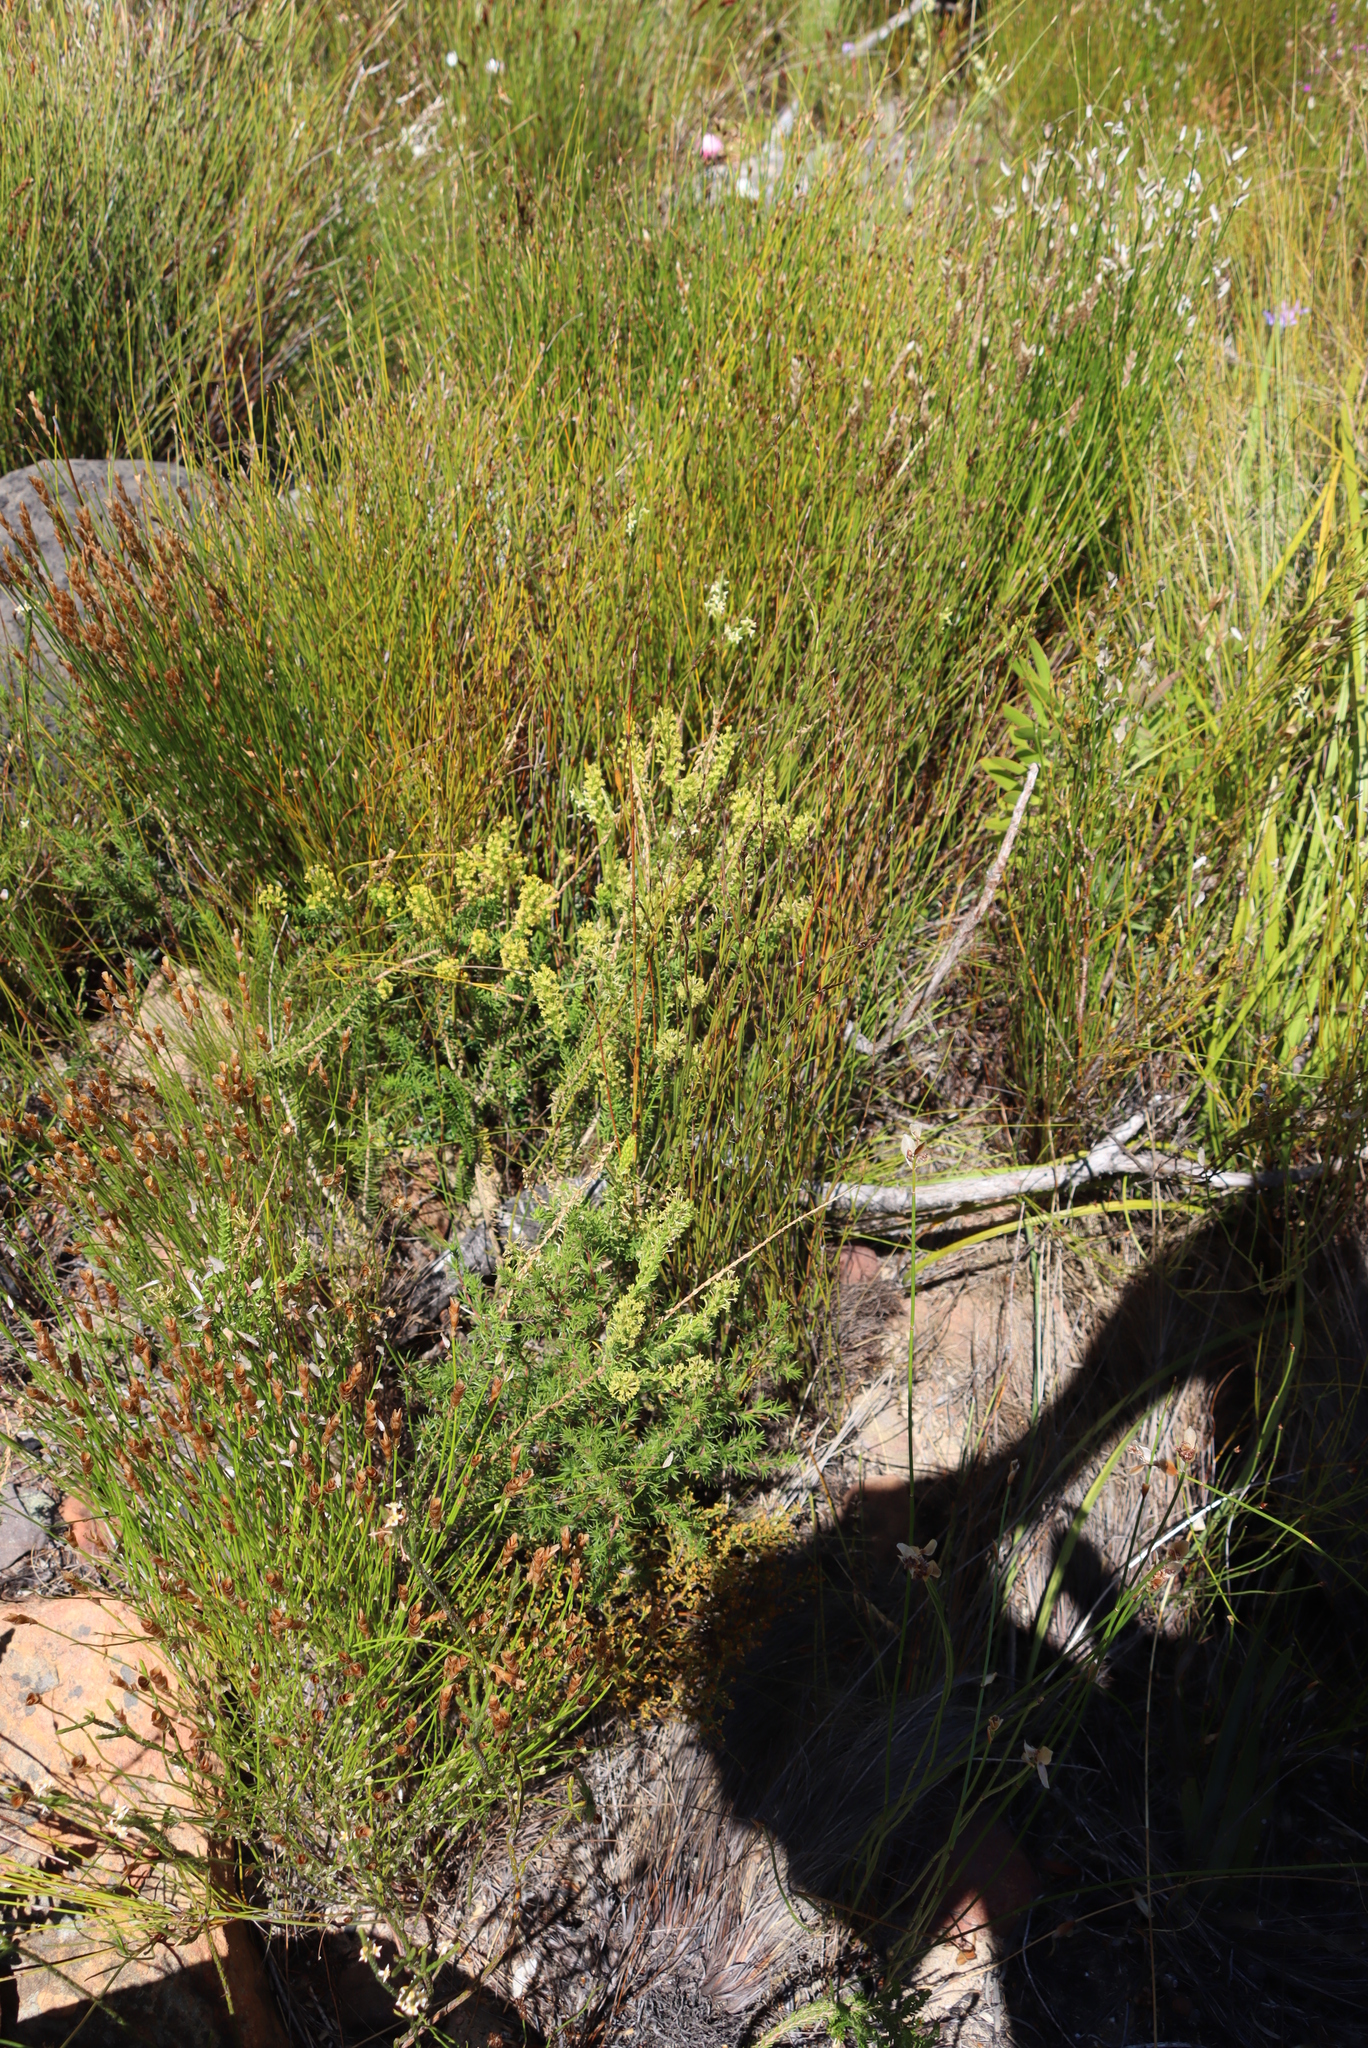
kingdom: Plantae
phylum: Tracheophyta
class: Magnoliopsida
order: Lamiales
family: Scrophulariaceae
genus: Microdon
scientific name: Microdon dubius
